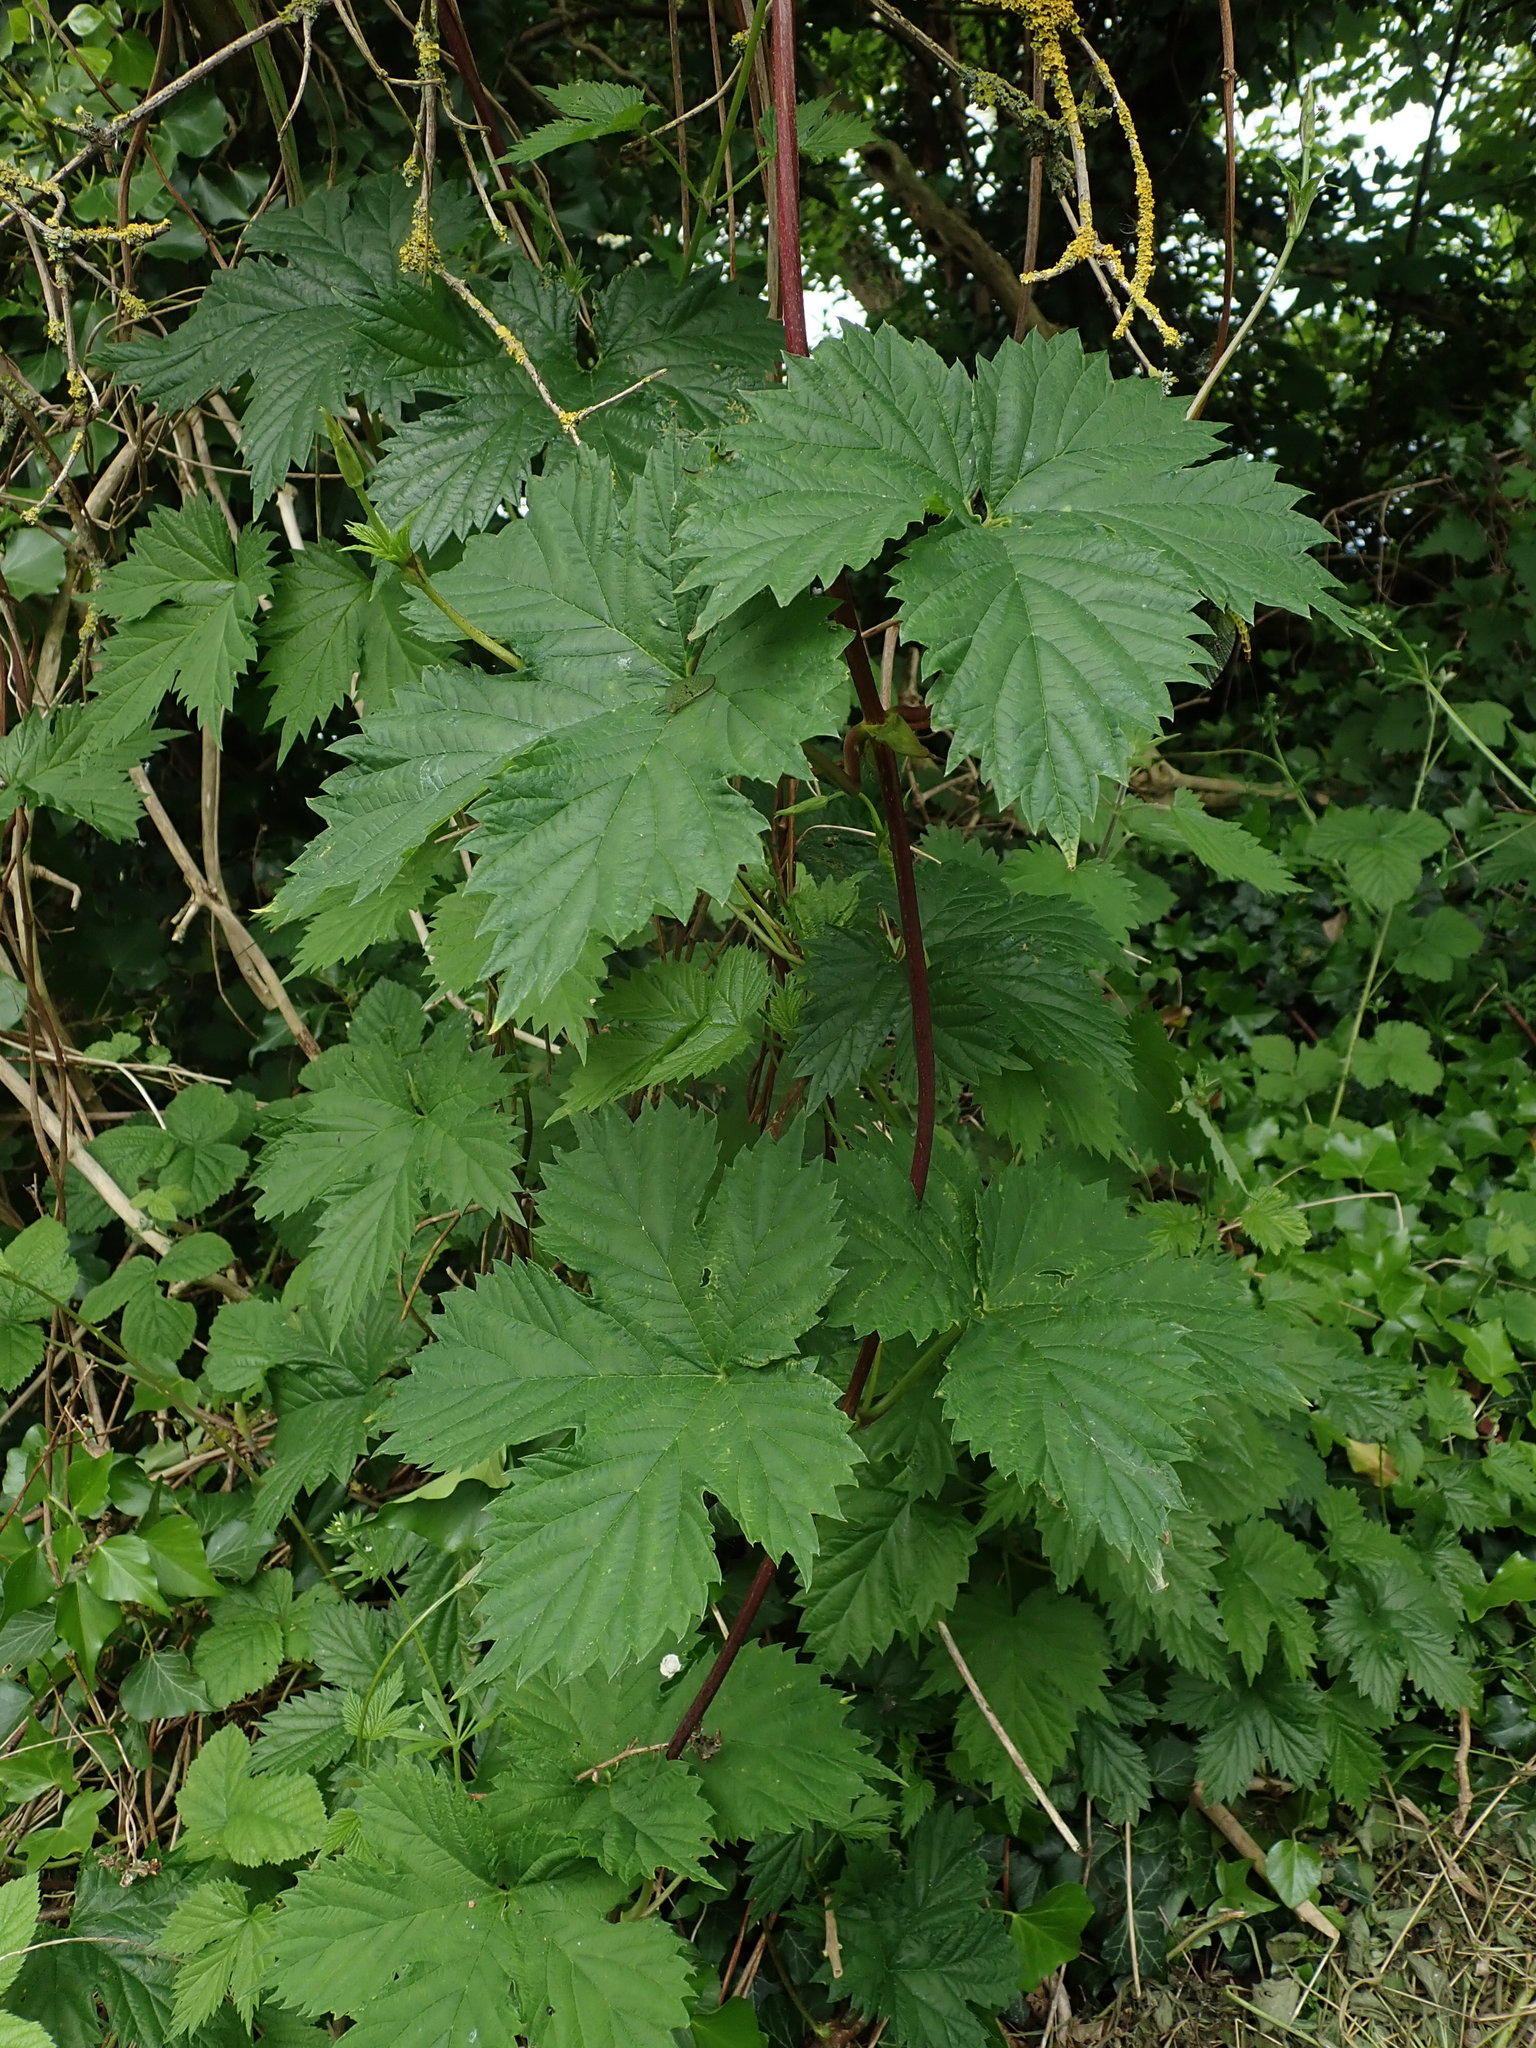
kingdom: Plantae
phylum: Tracheophyta
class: Magnoliopsida
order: Rosales
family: Cannabaceae
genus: Humulus
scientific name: Humulus lupulus
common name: Hop
